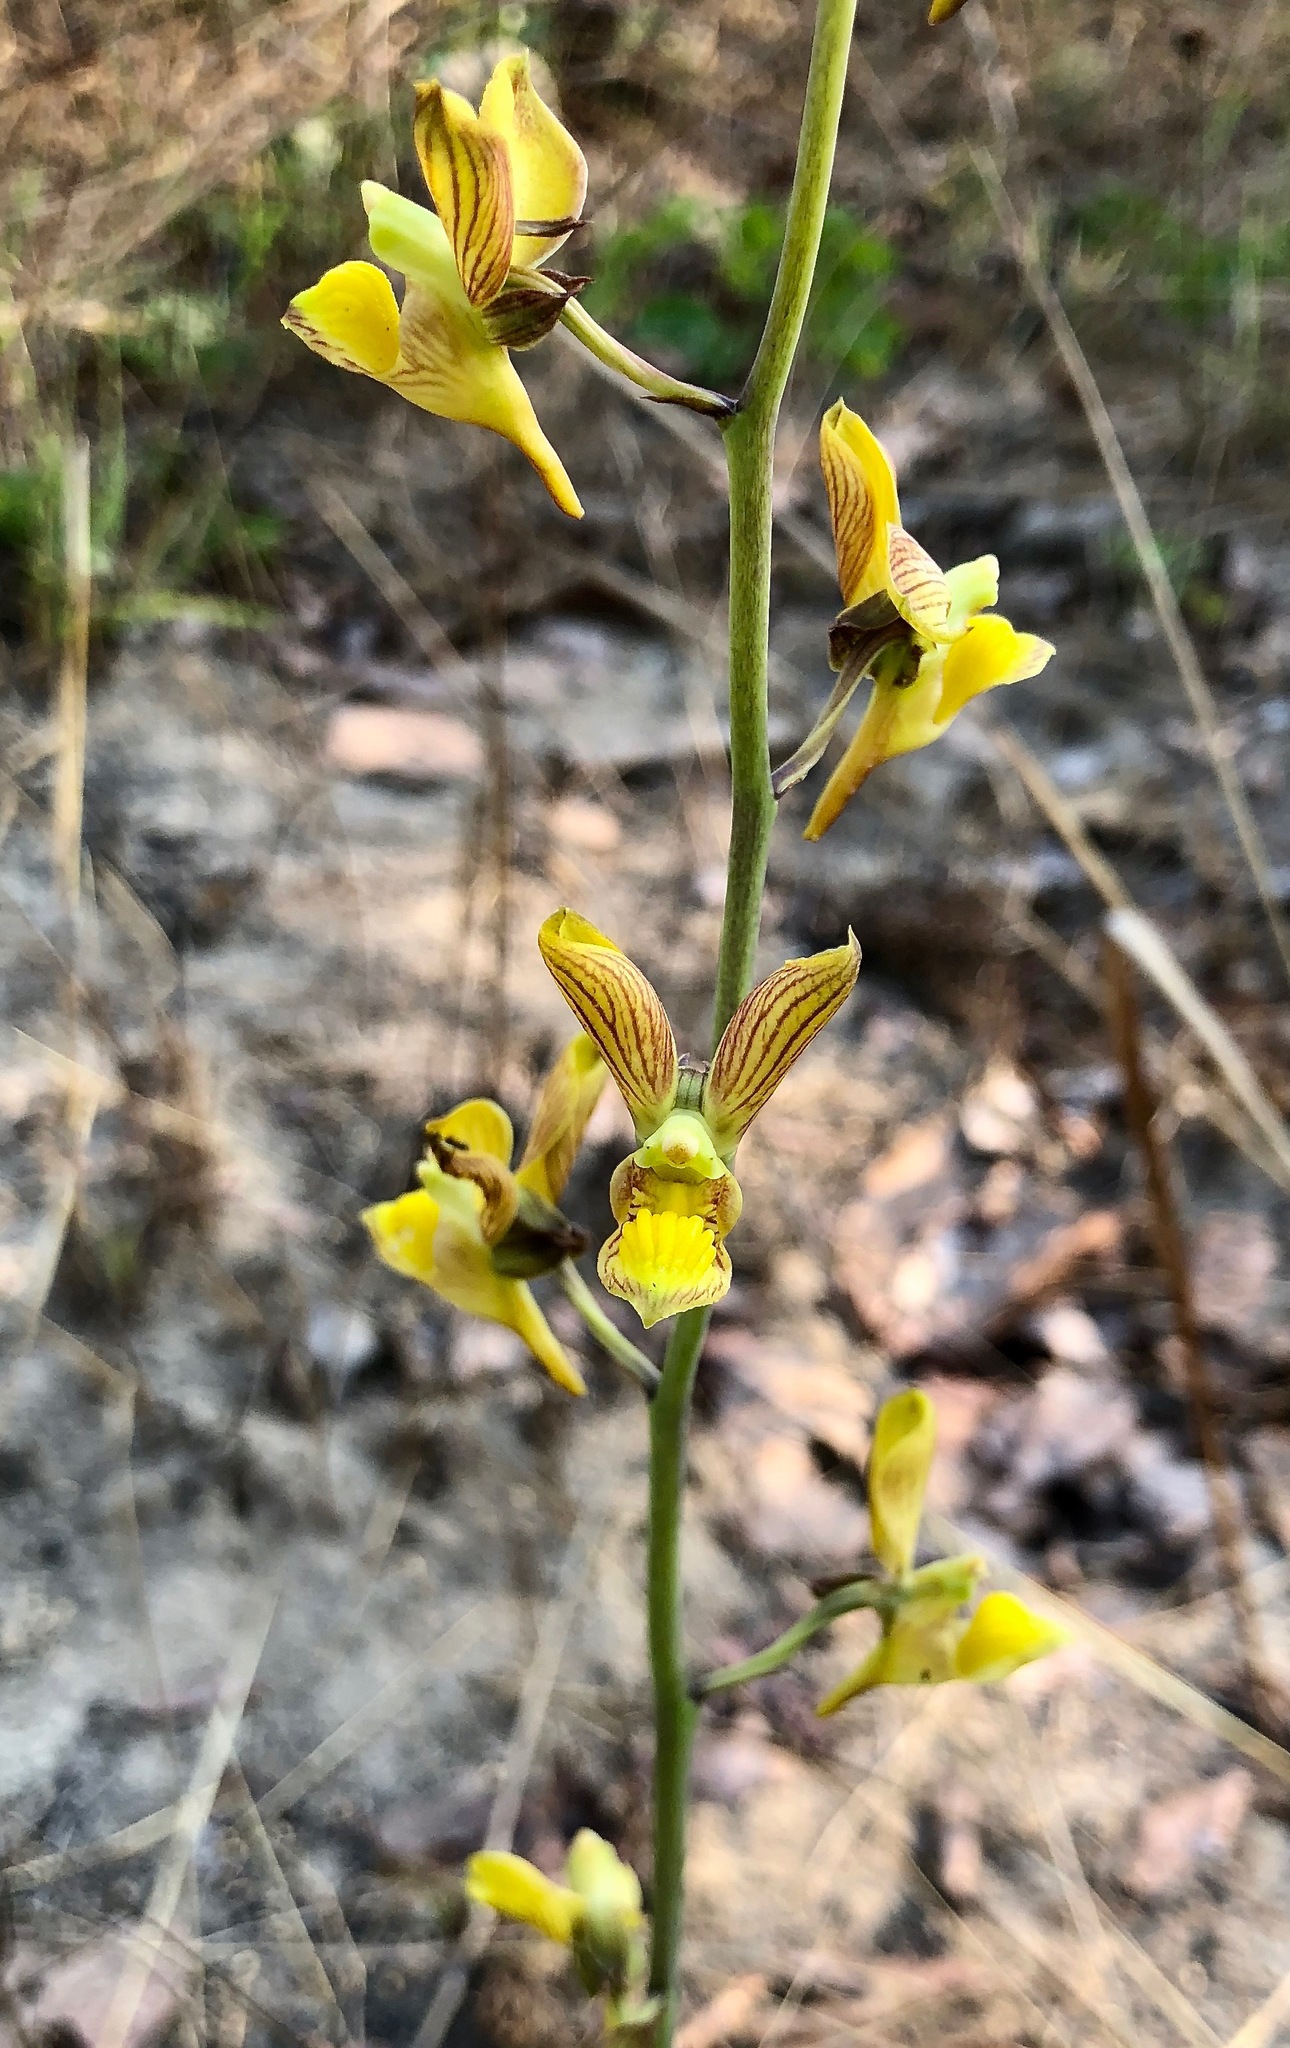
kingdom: Plantae
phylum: Tracheophyta
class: Liliopsida
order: Asparagales
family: Orchidaceae
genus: Eulophia
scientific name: Eulophia orthoplectra
